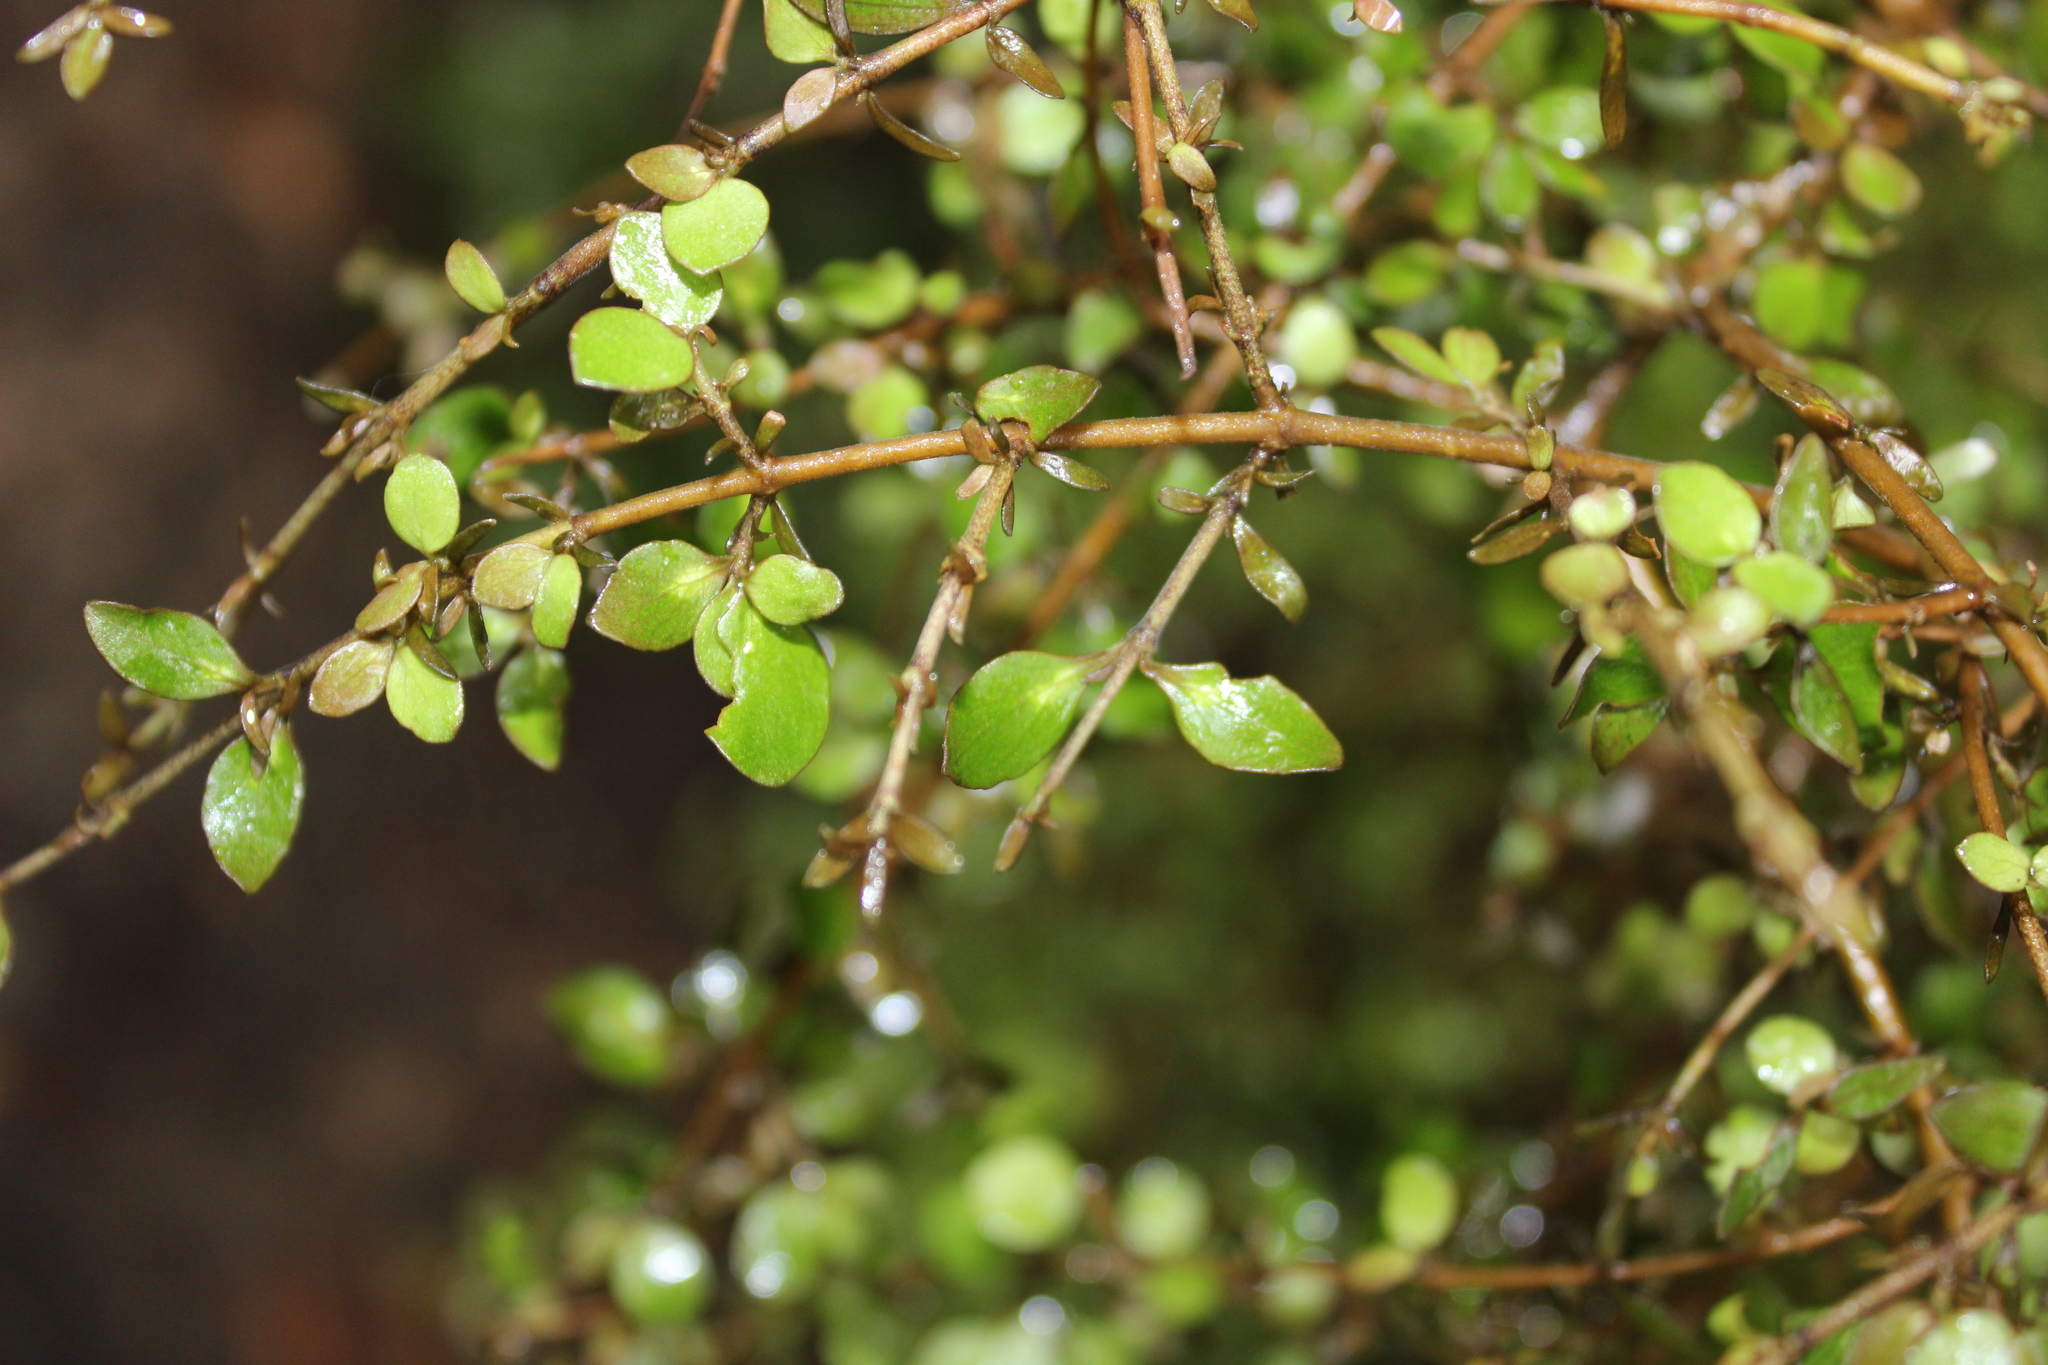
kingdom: Plantae
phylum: Tracheophyta
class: Magnoliopsida
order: Gentianales
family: Rubiaceae
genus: Coprosma
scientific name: Coprosma rhamnoides
